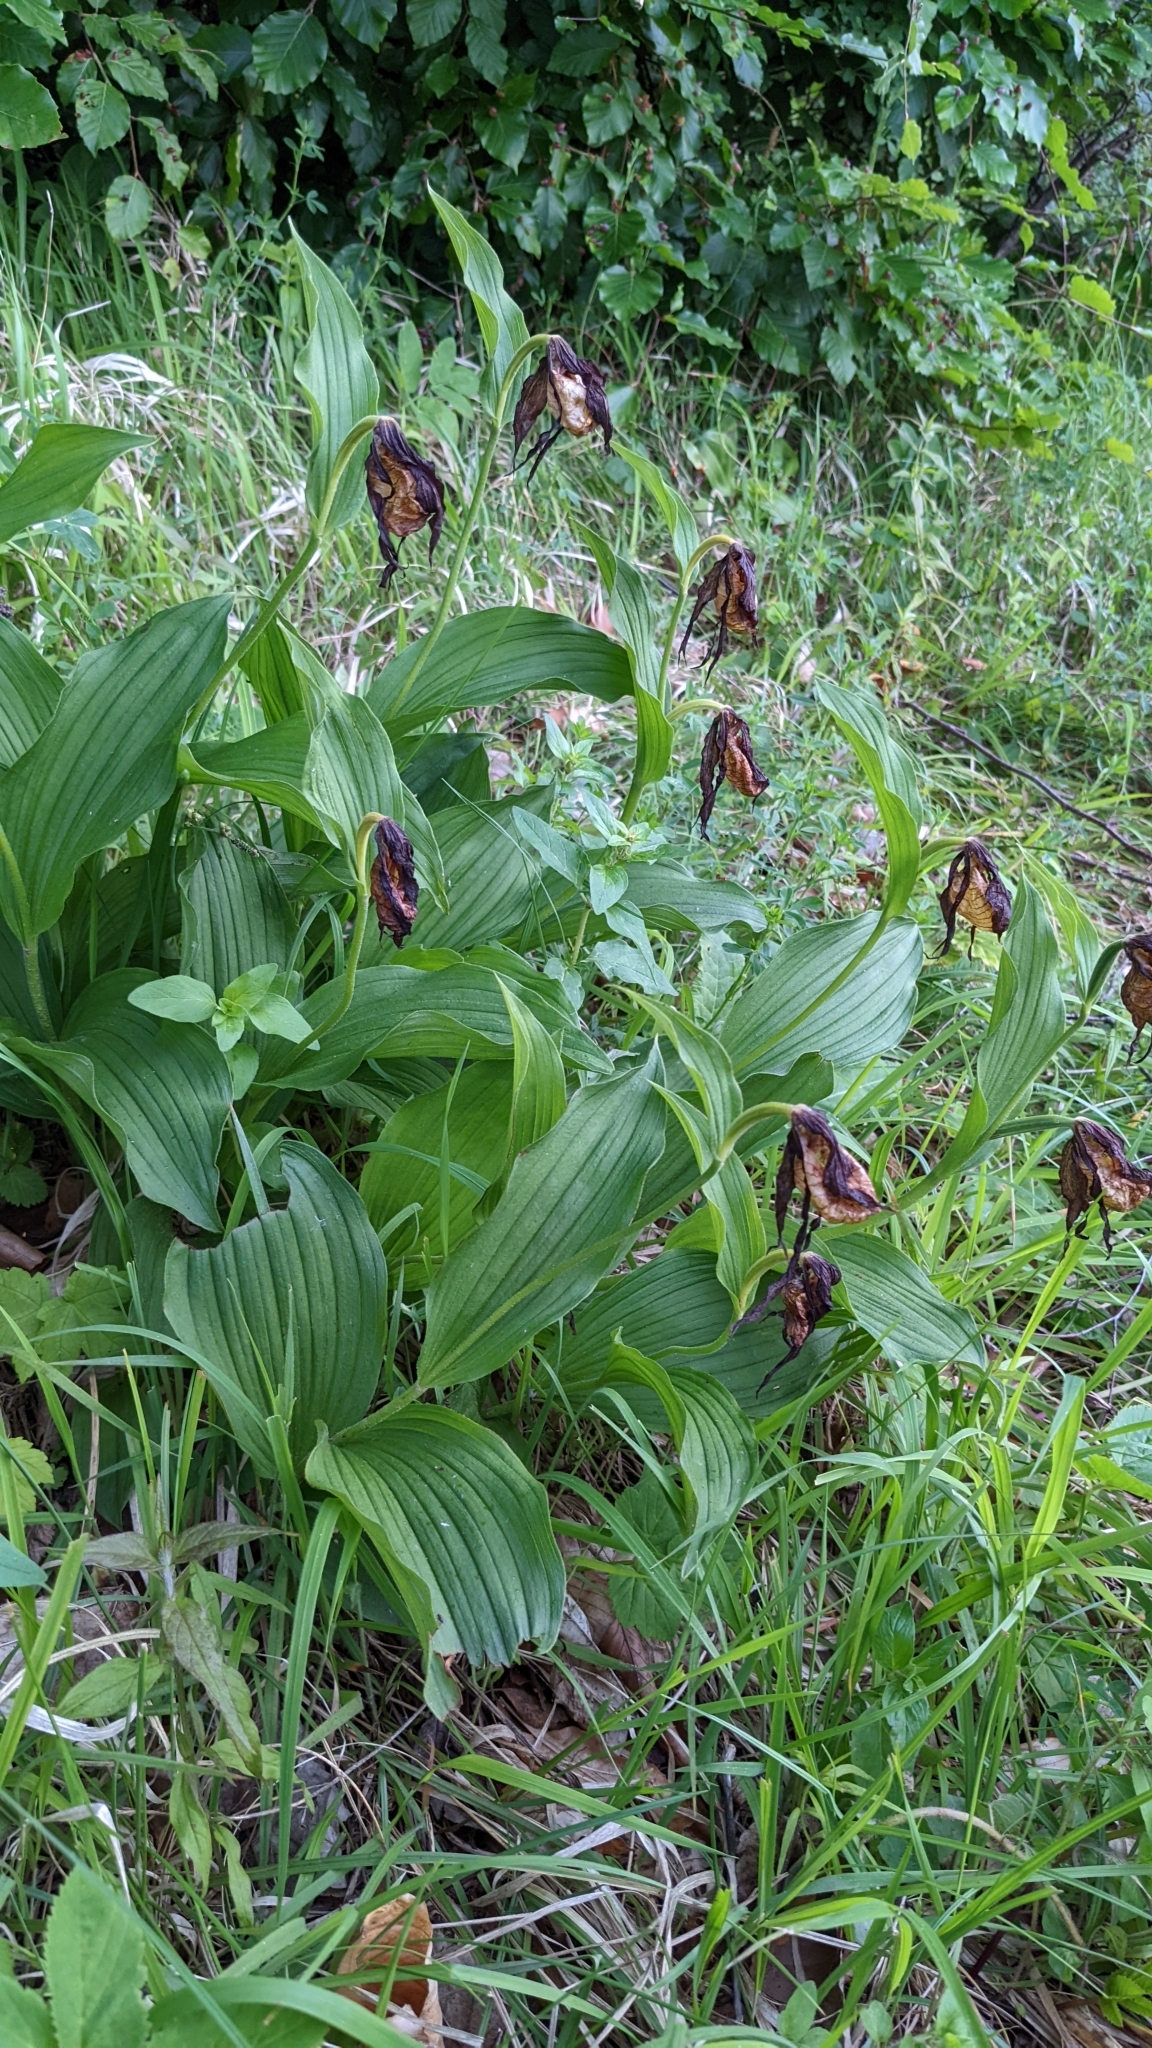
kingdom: Plantae
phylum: Tracheophyta
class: Liliopsida
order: Asparagales
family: Orchidaceae
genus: Cypripedium
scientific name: Cypripedium calceolus
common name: Lady's-slipper
